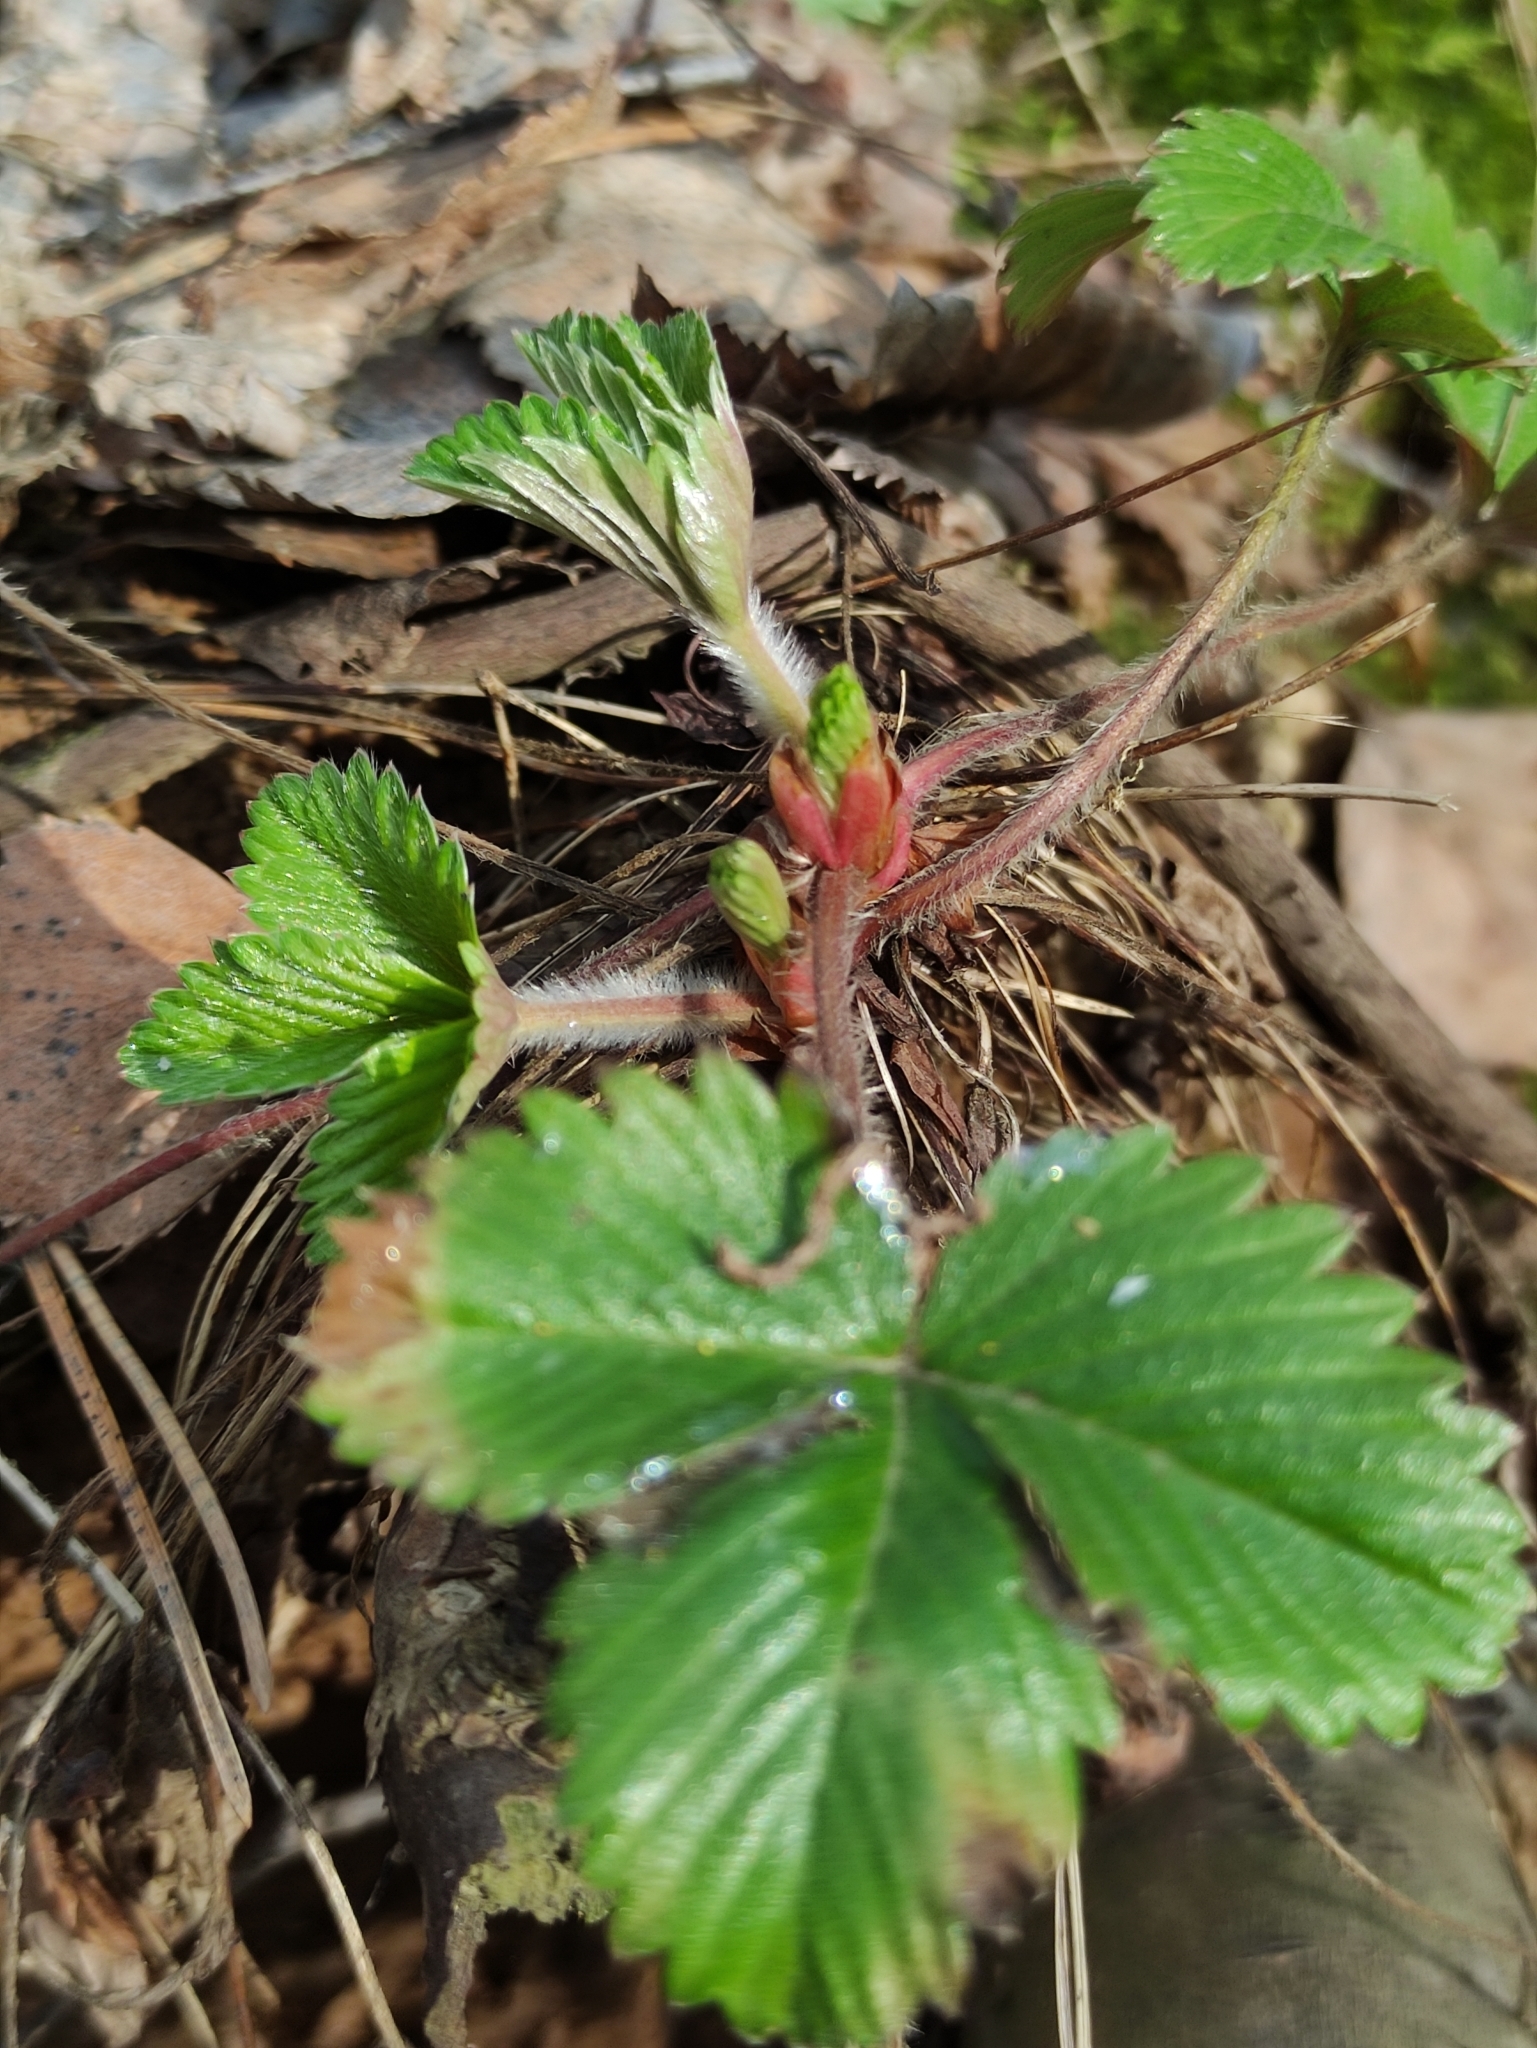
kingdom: Plantae
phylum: Tracheophyta
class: Magnoliopsida
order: Rosales
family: Rosaceae
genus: Fragaria
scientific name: Fragaria vesca
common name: Wild strawberry
